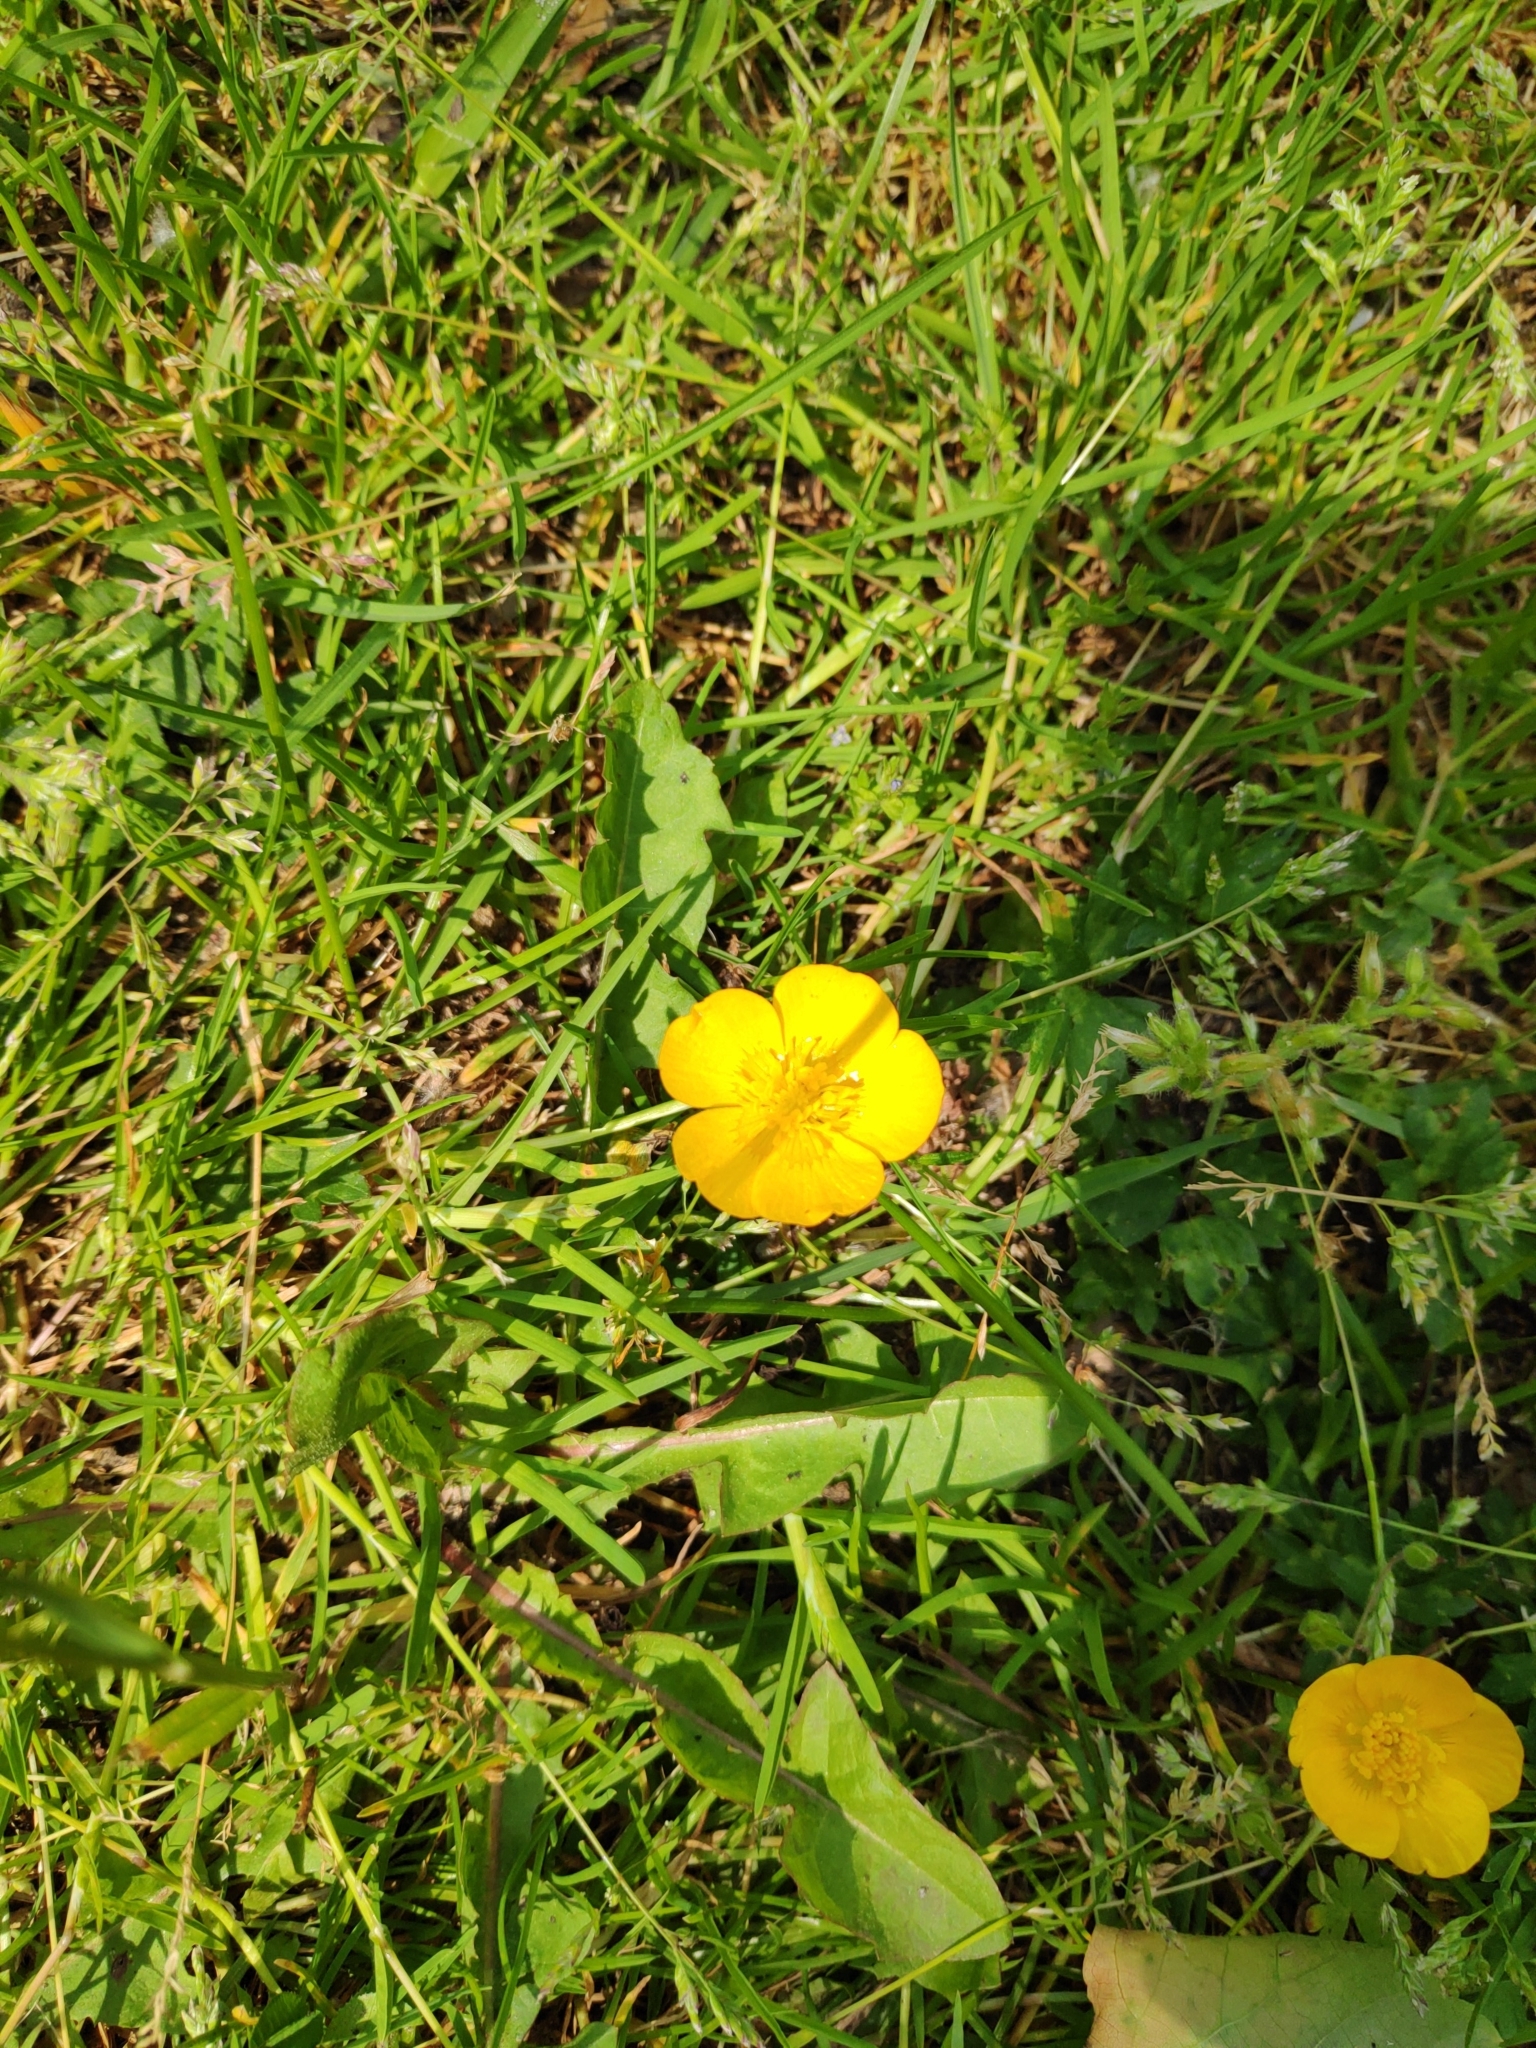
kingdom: Plantae
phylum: Tracheophyta
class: Magnoliopsida
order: Ranunculales
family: Ranunculaceae
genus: Ranunculus
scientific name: Ranunculus repens
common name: Creeping buttercup
